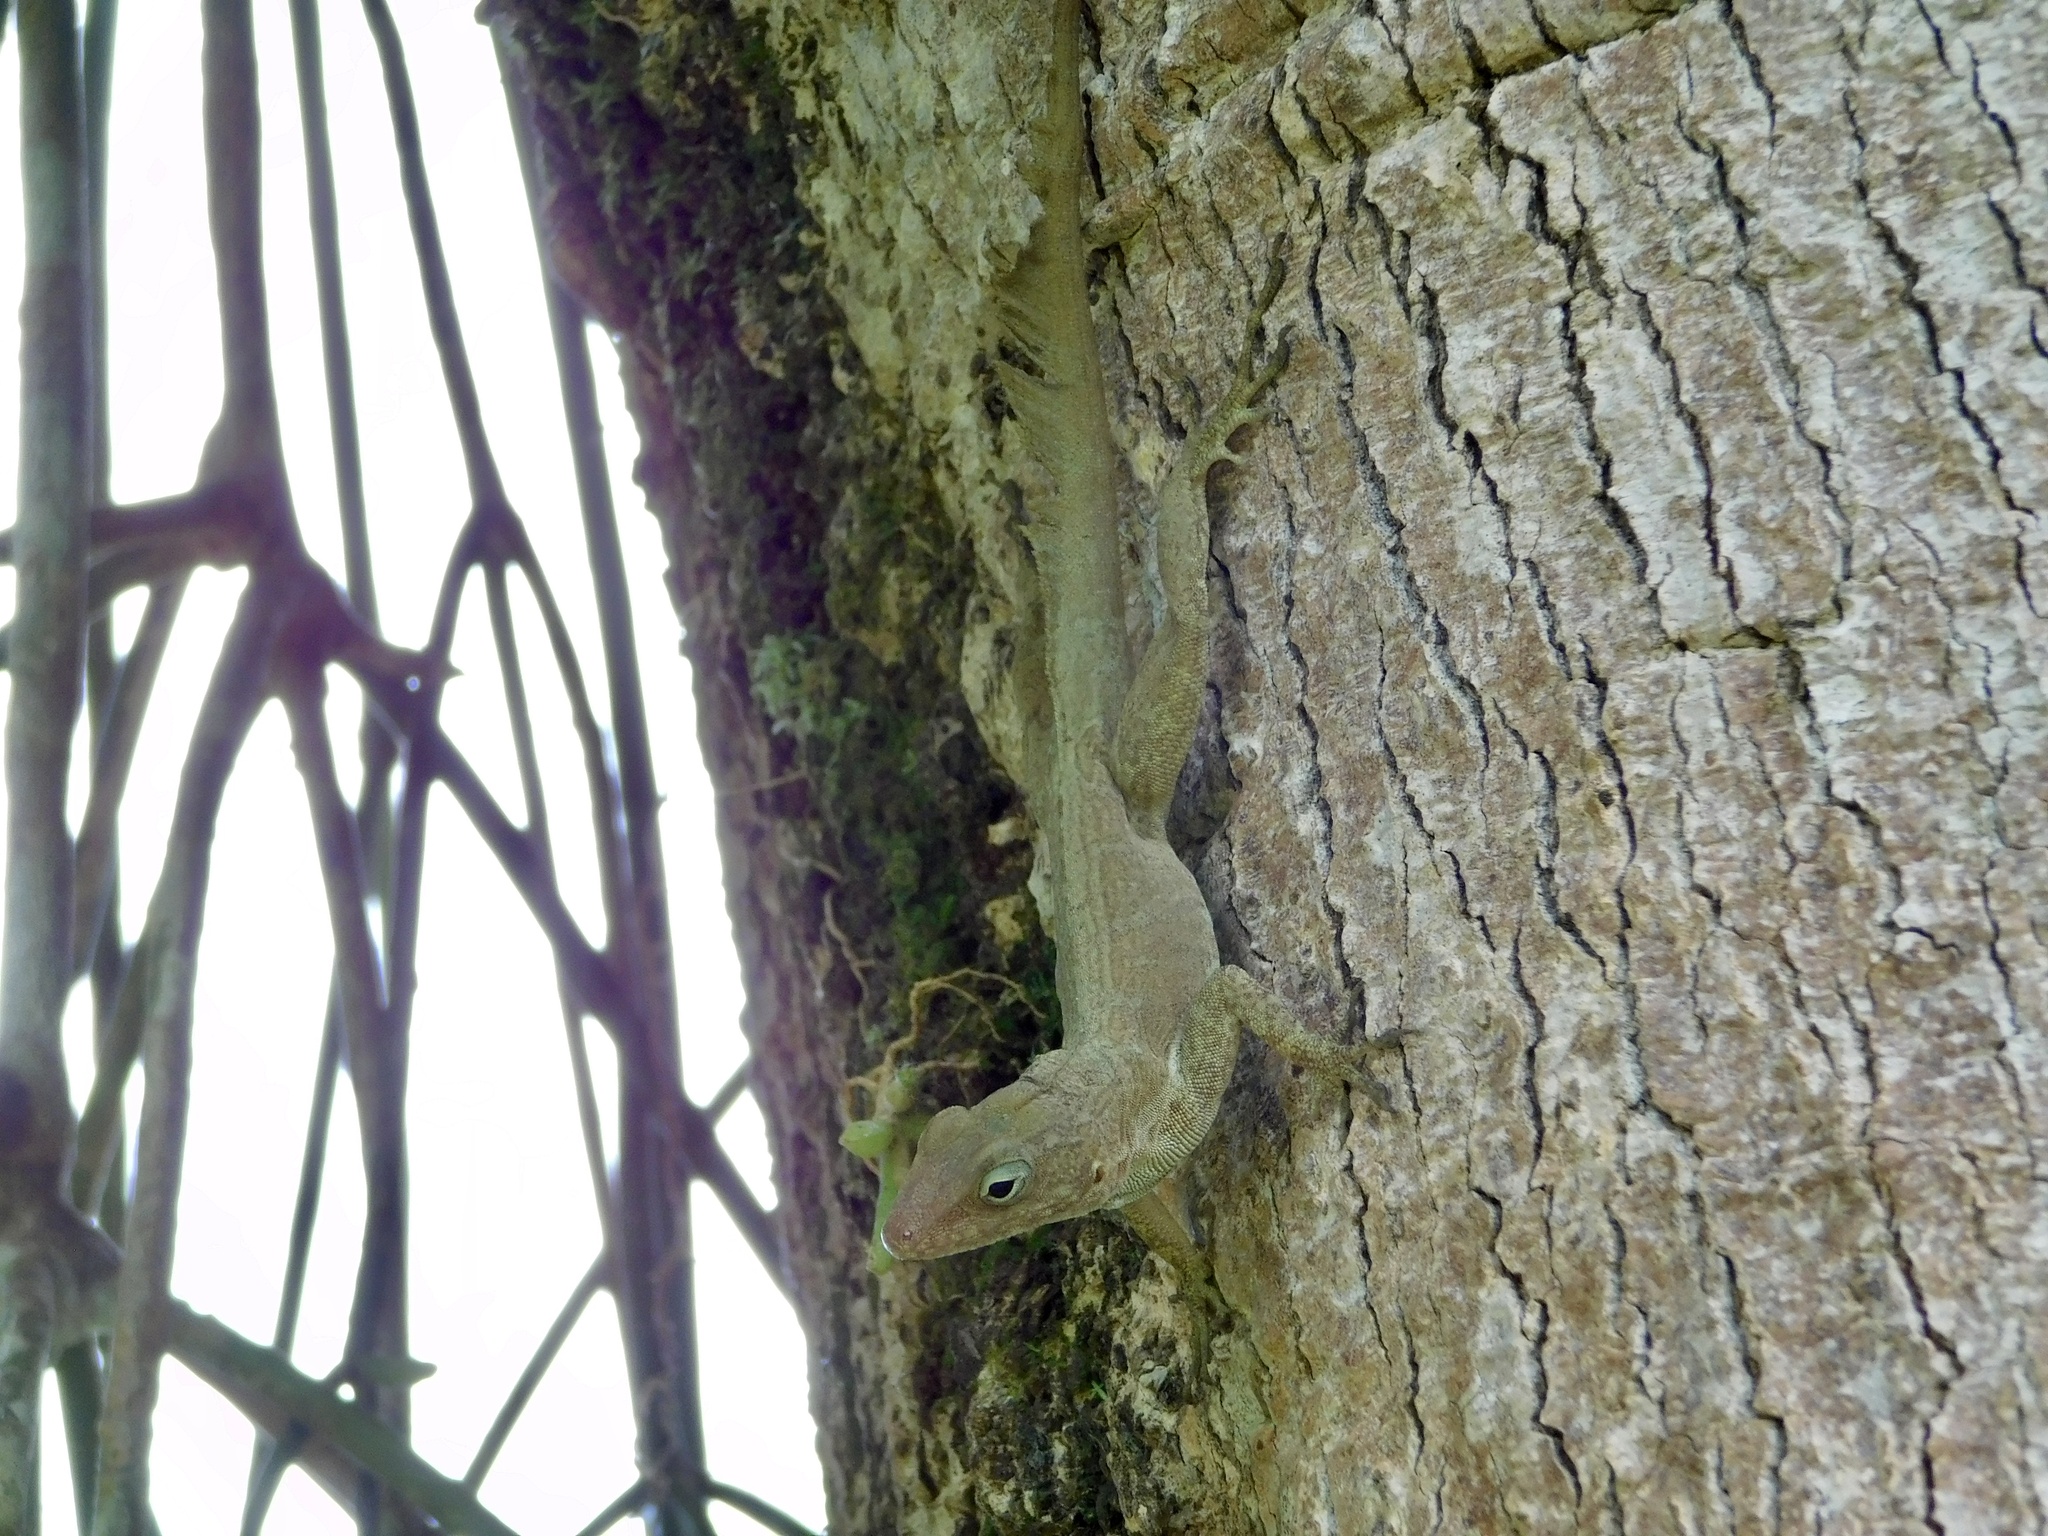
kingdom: Animalia
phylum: Chordata
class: Squamata
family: Dactyloidae
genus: Anolis
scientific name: Anolis cristatellus
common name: Crested anole
